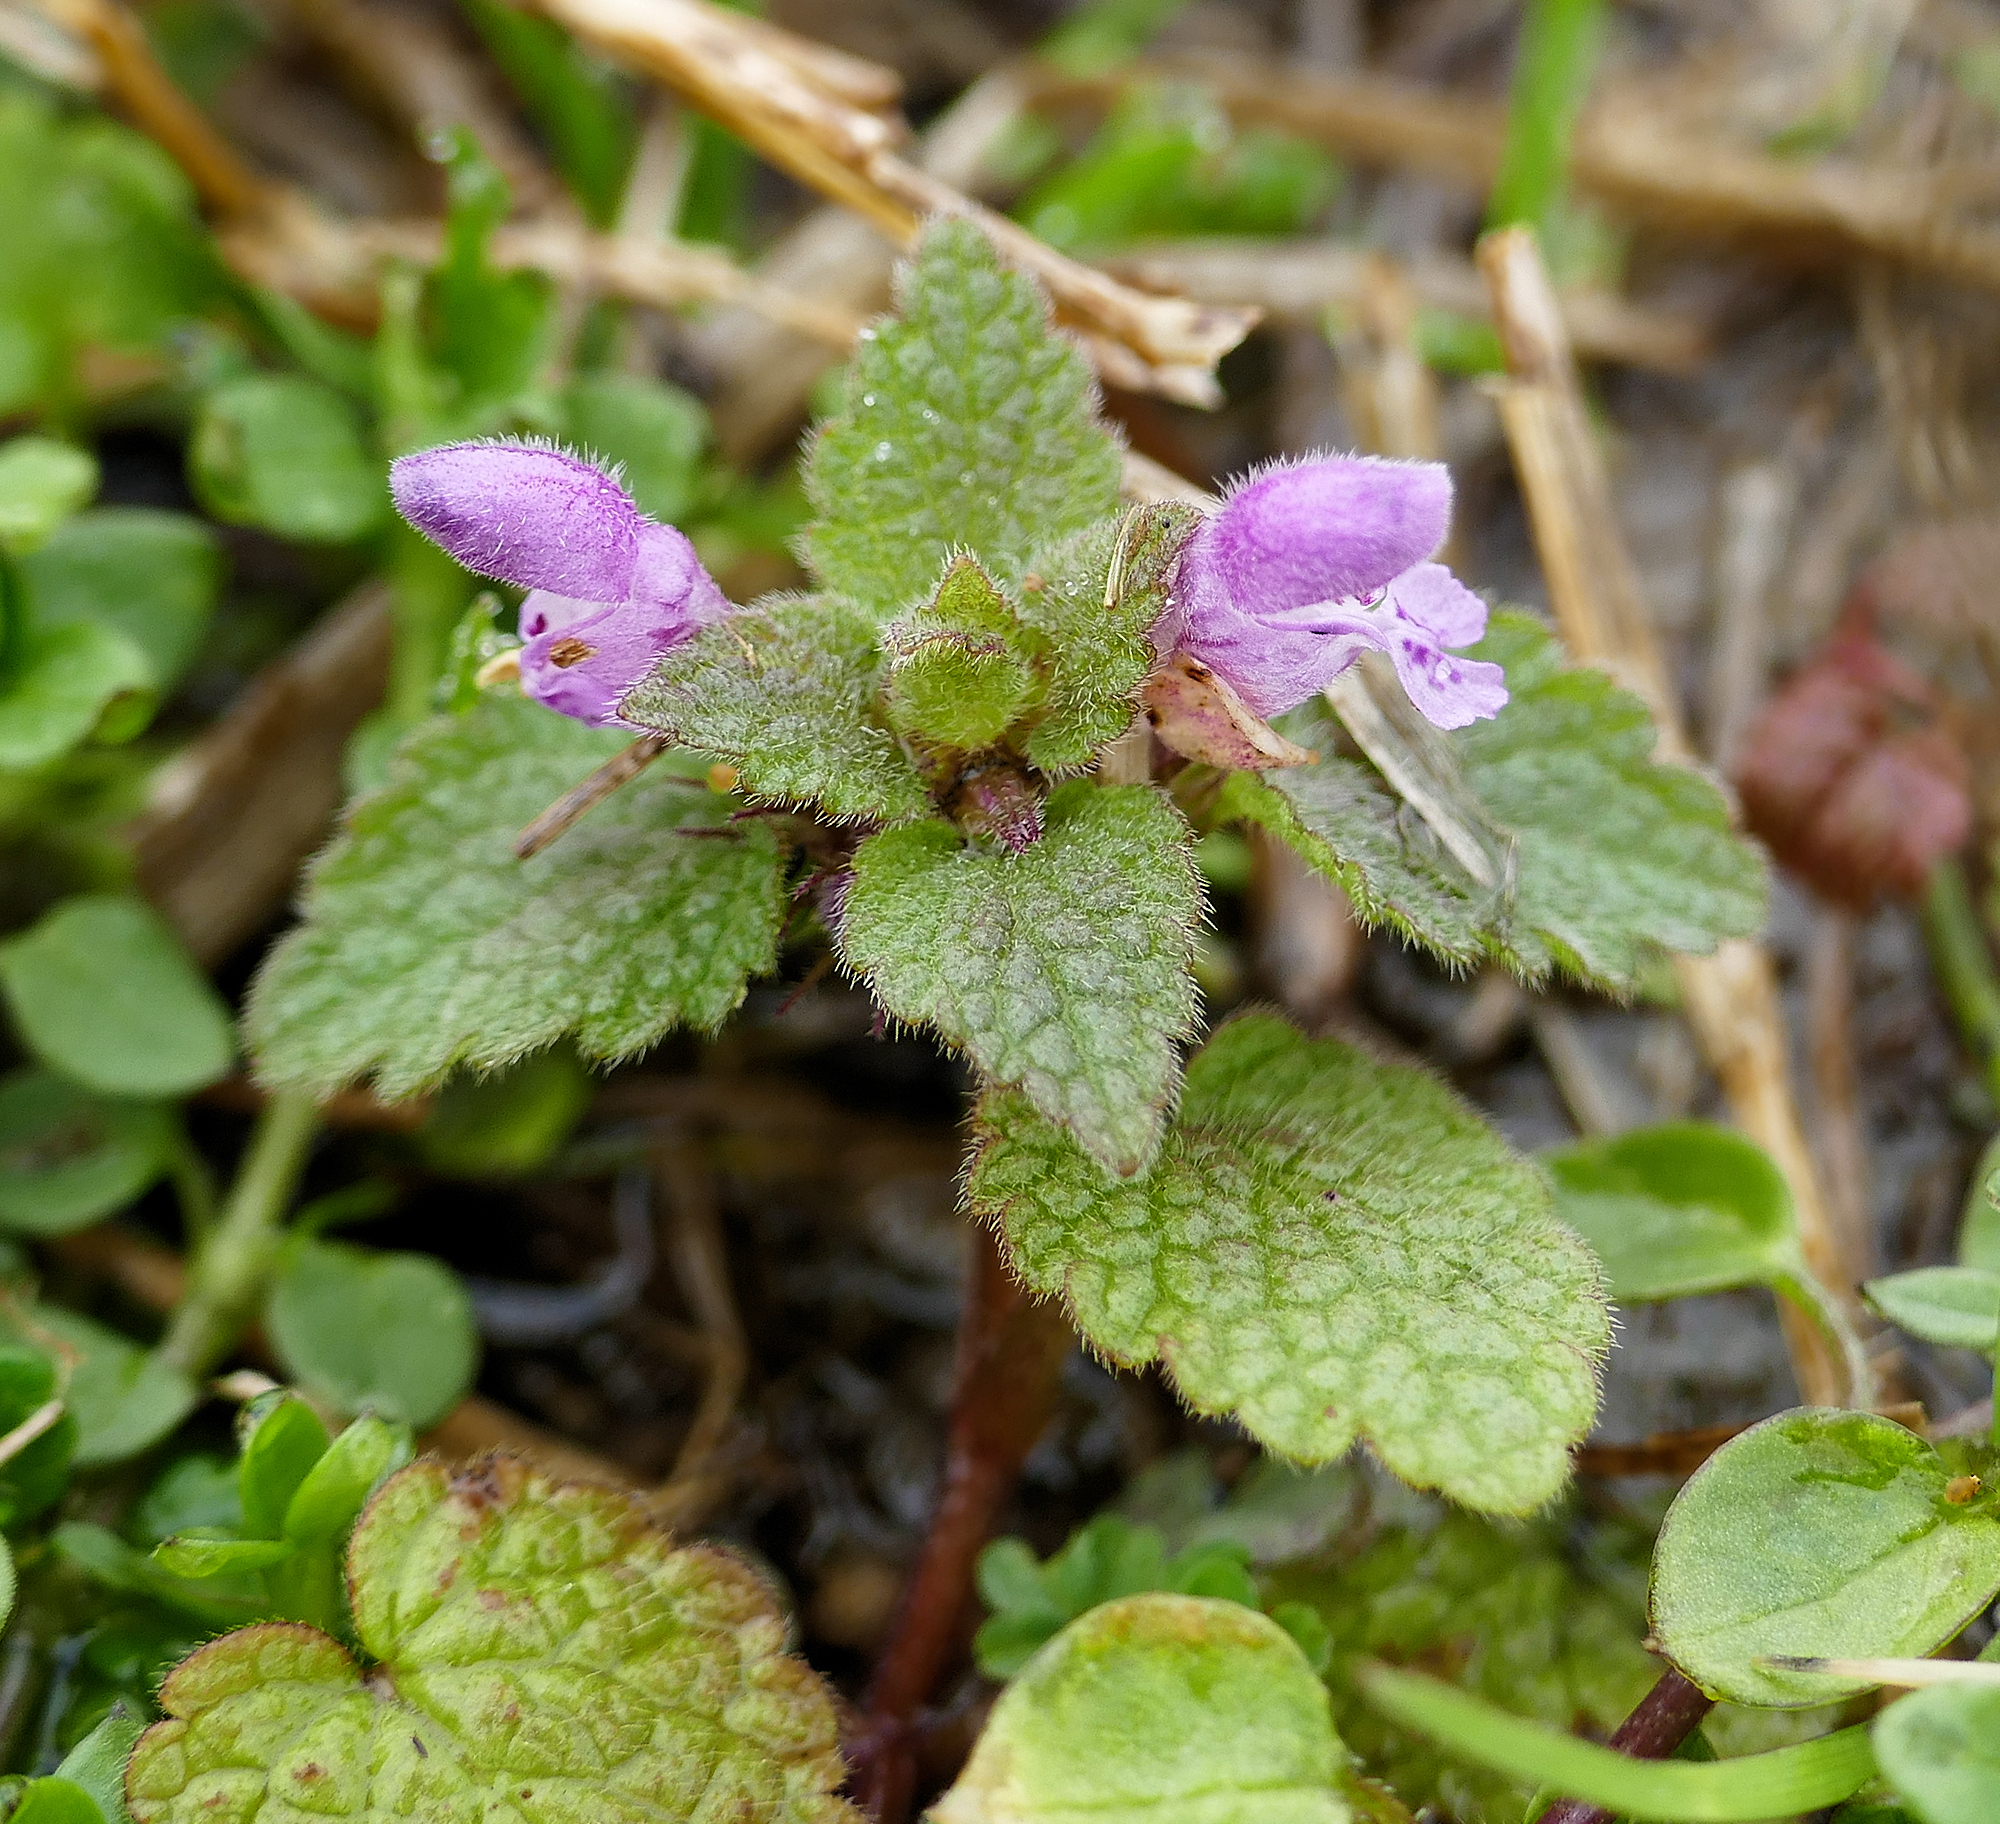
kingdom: Plantae
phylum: Tracheophyta
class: Magnoliopsida
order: Lamiales
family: Lamiaceae
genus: Lamium
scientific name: Lamium purpureum
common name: Red dead-nettle
